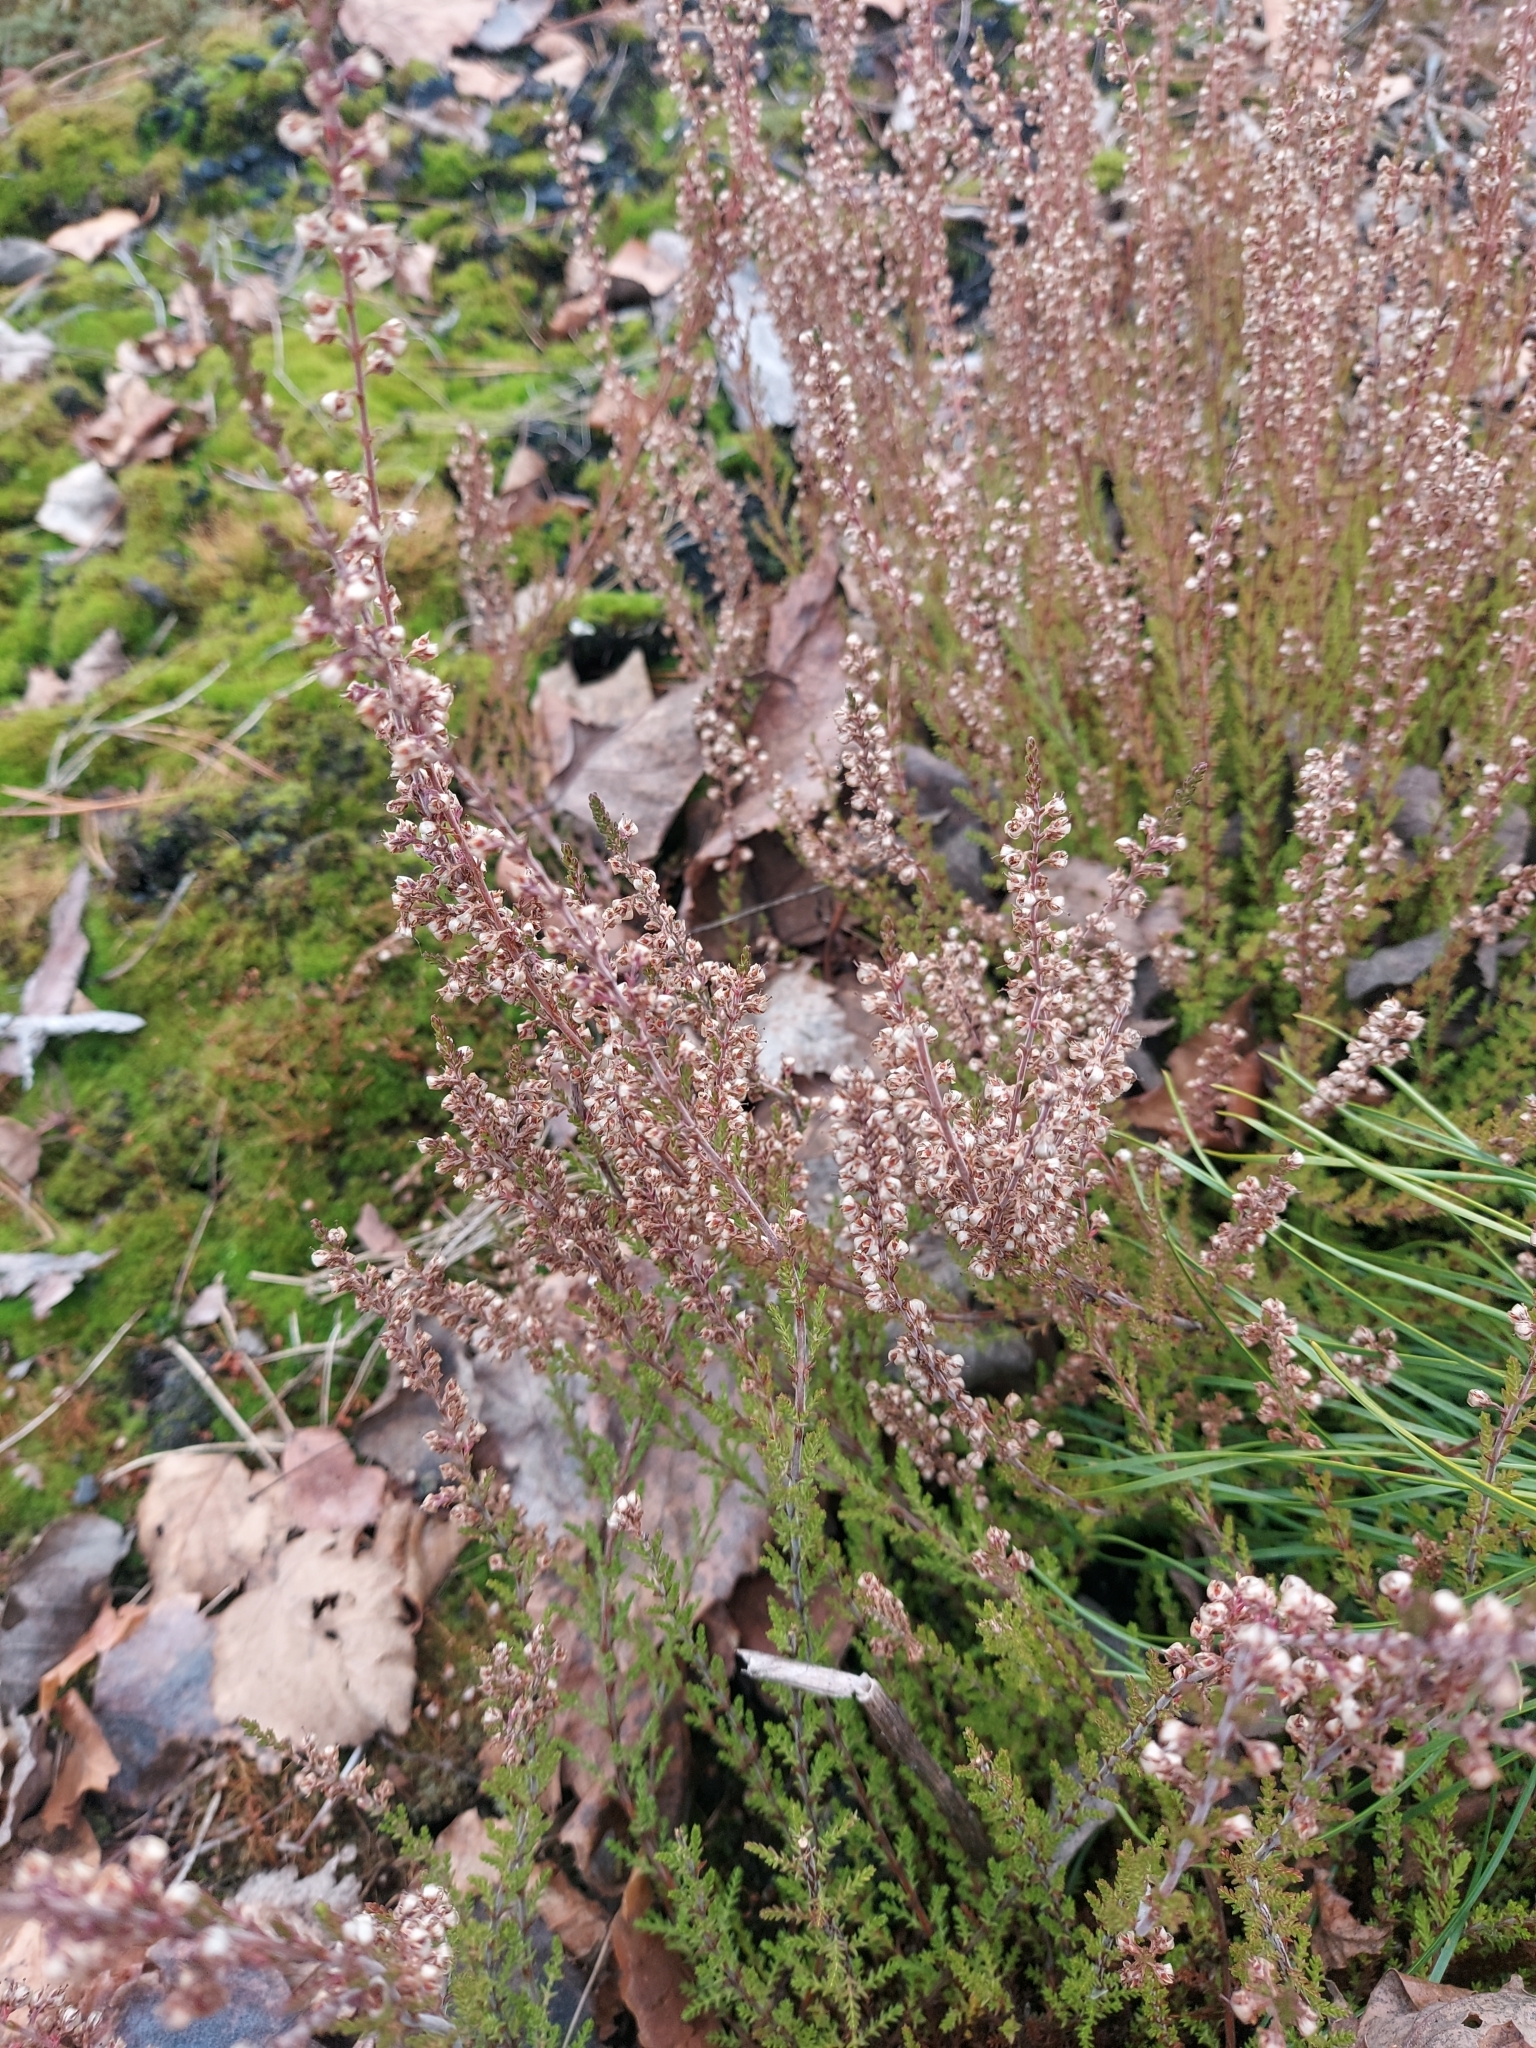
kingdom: Plantae
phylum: Tracheophyta
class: Magnoliopsida
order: Ericales
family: Ericaceae
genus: Calluna
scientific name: Calluna vulgaris
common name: Heather
